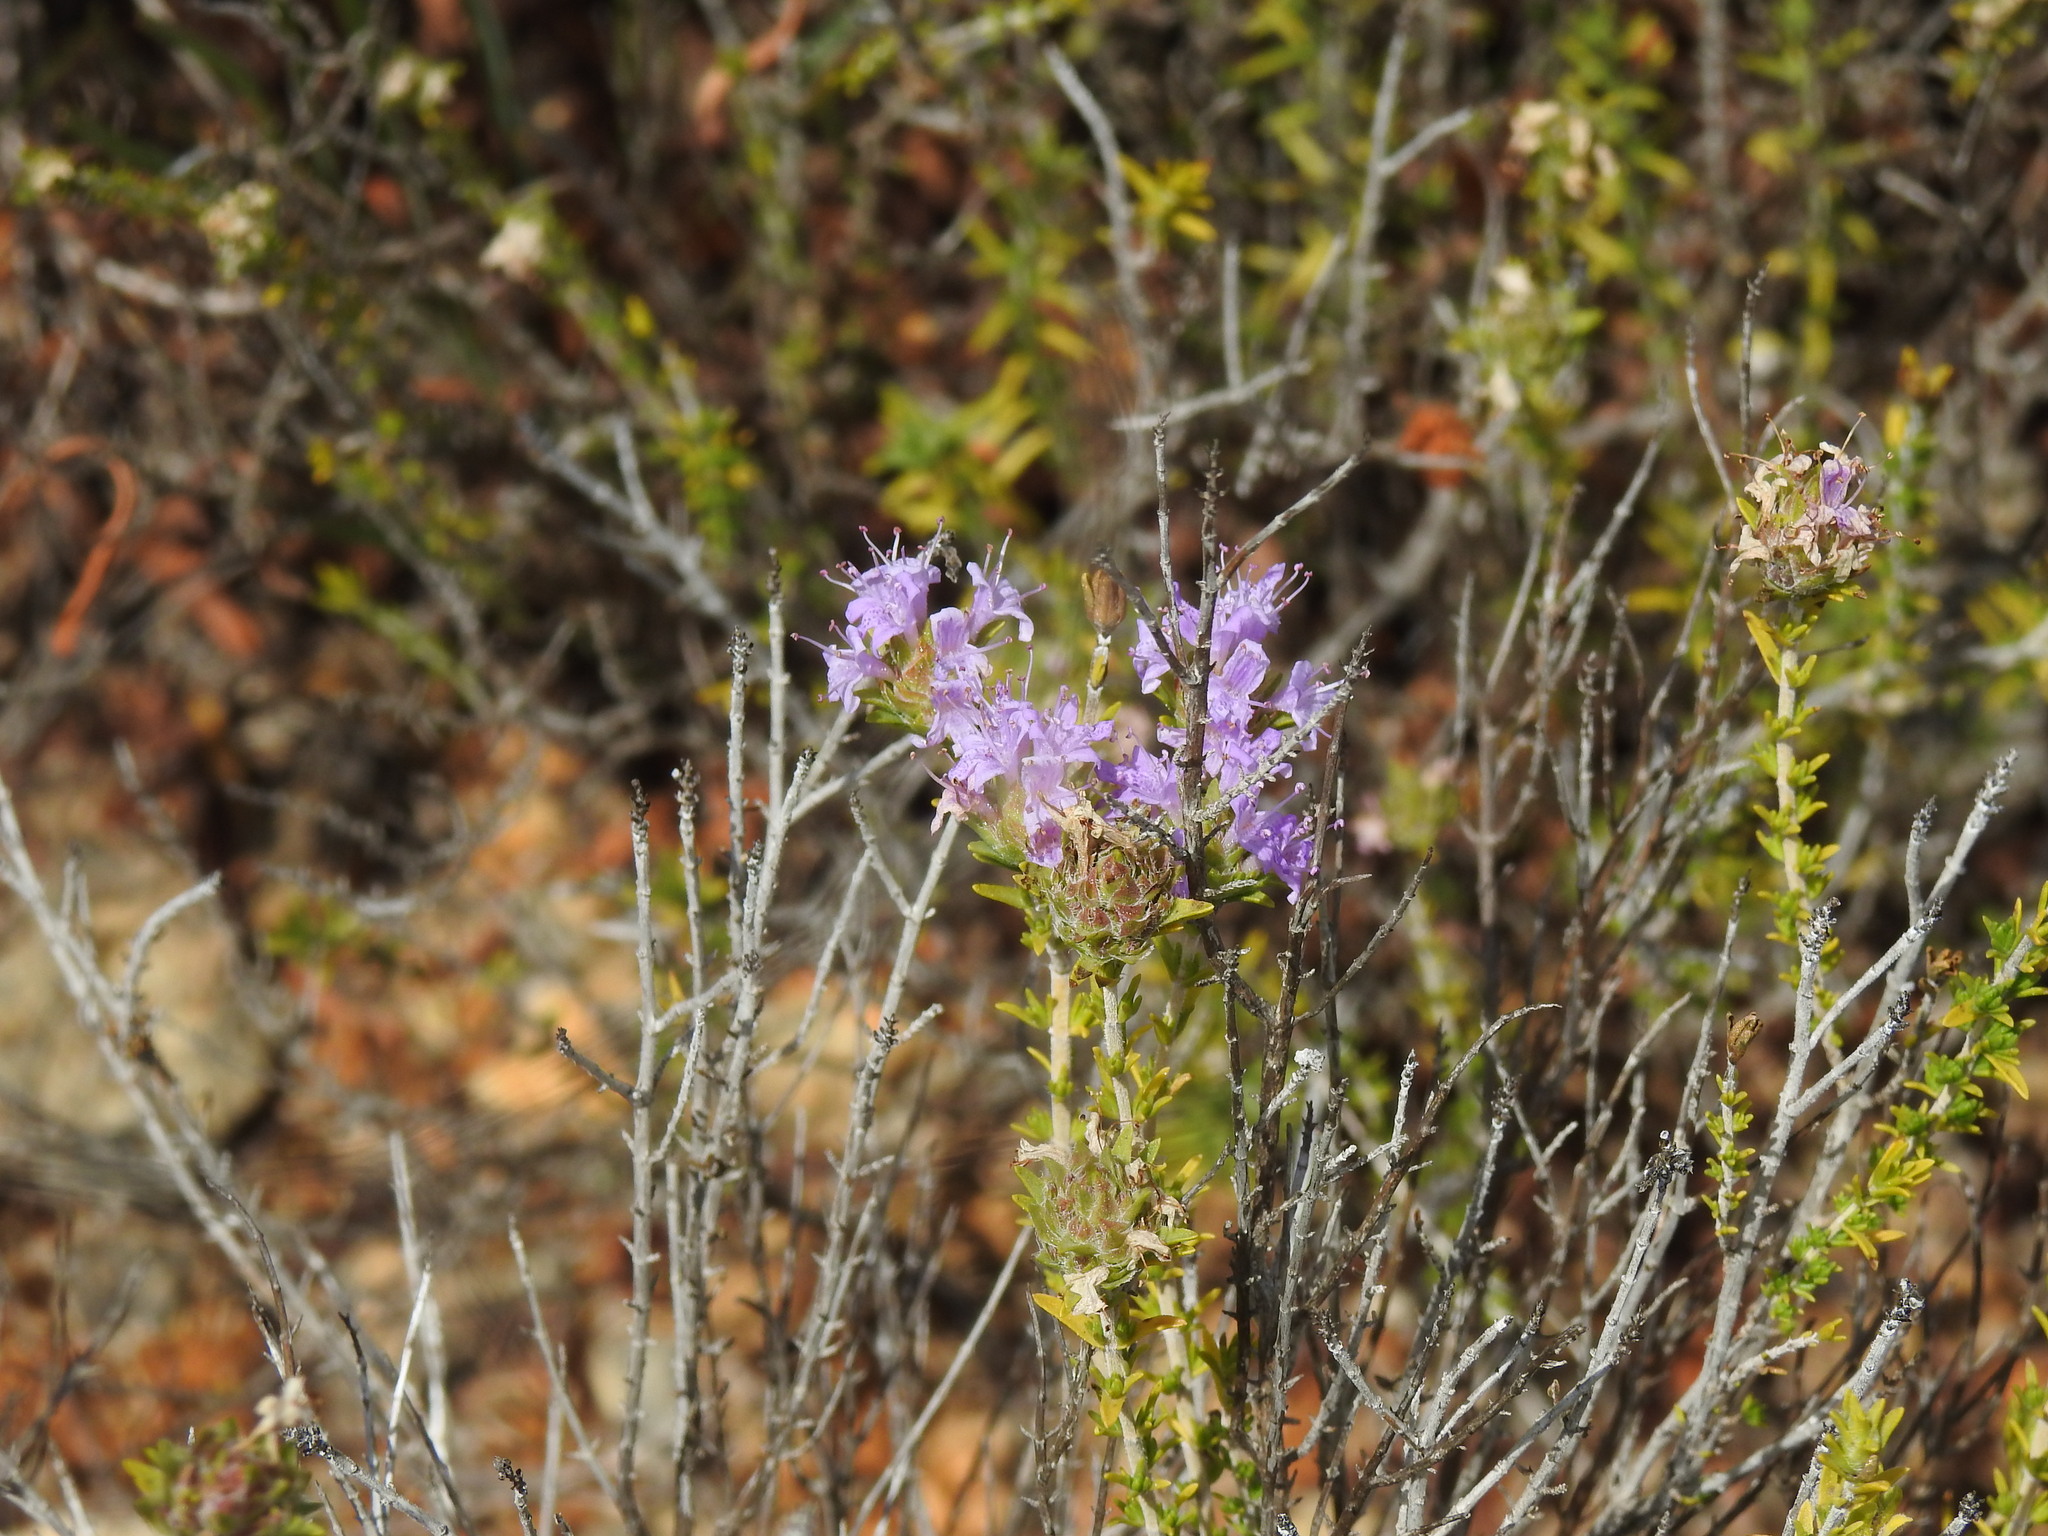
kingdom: Plantae
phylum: Tracheophyta
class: Magnoliopsida
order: Lamiales
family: Lamiaceae
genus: Thymbra
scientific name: Thymbra capitata
